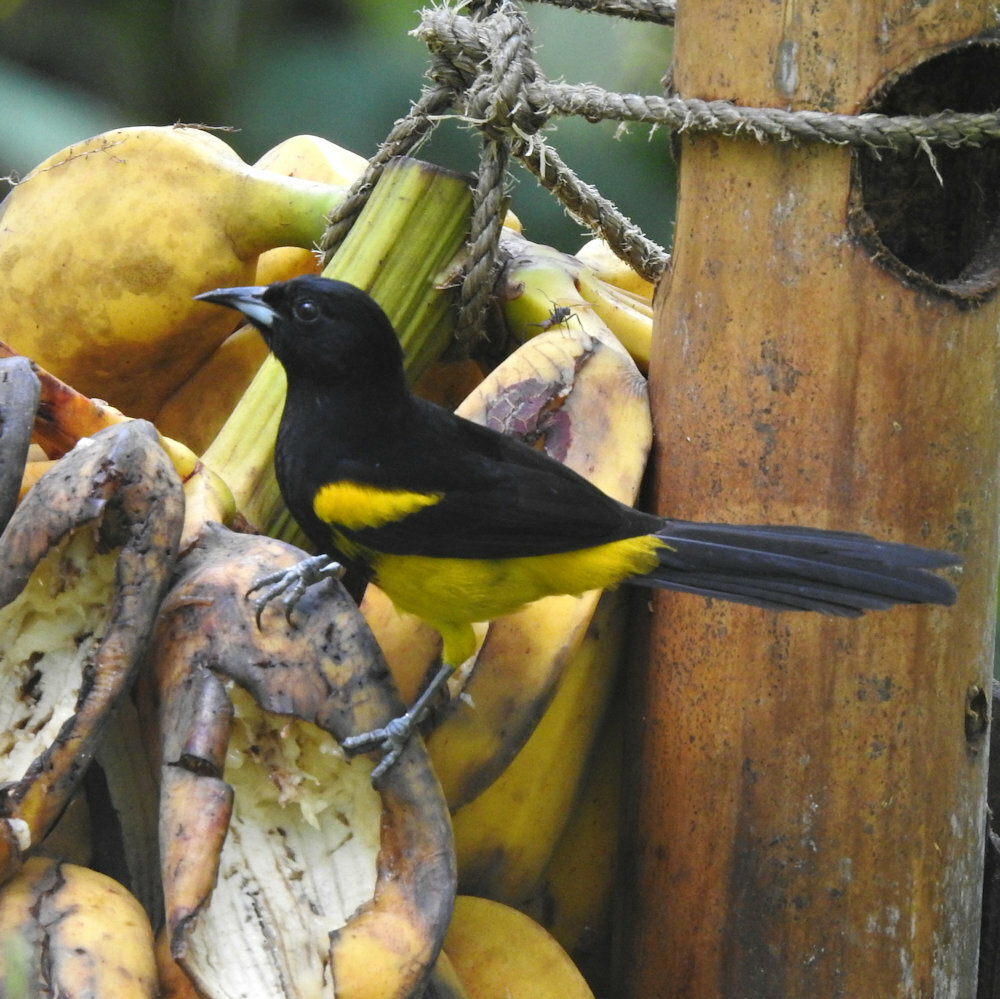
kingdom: Animalia
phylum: Chordata
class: Aves
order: Passeriformes
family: Icteridae
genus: Icterus
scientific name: Icterus prosthemelas
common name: Black-cowled oriole
